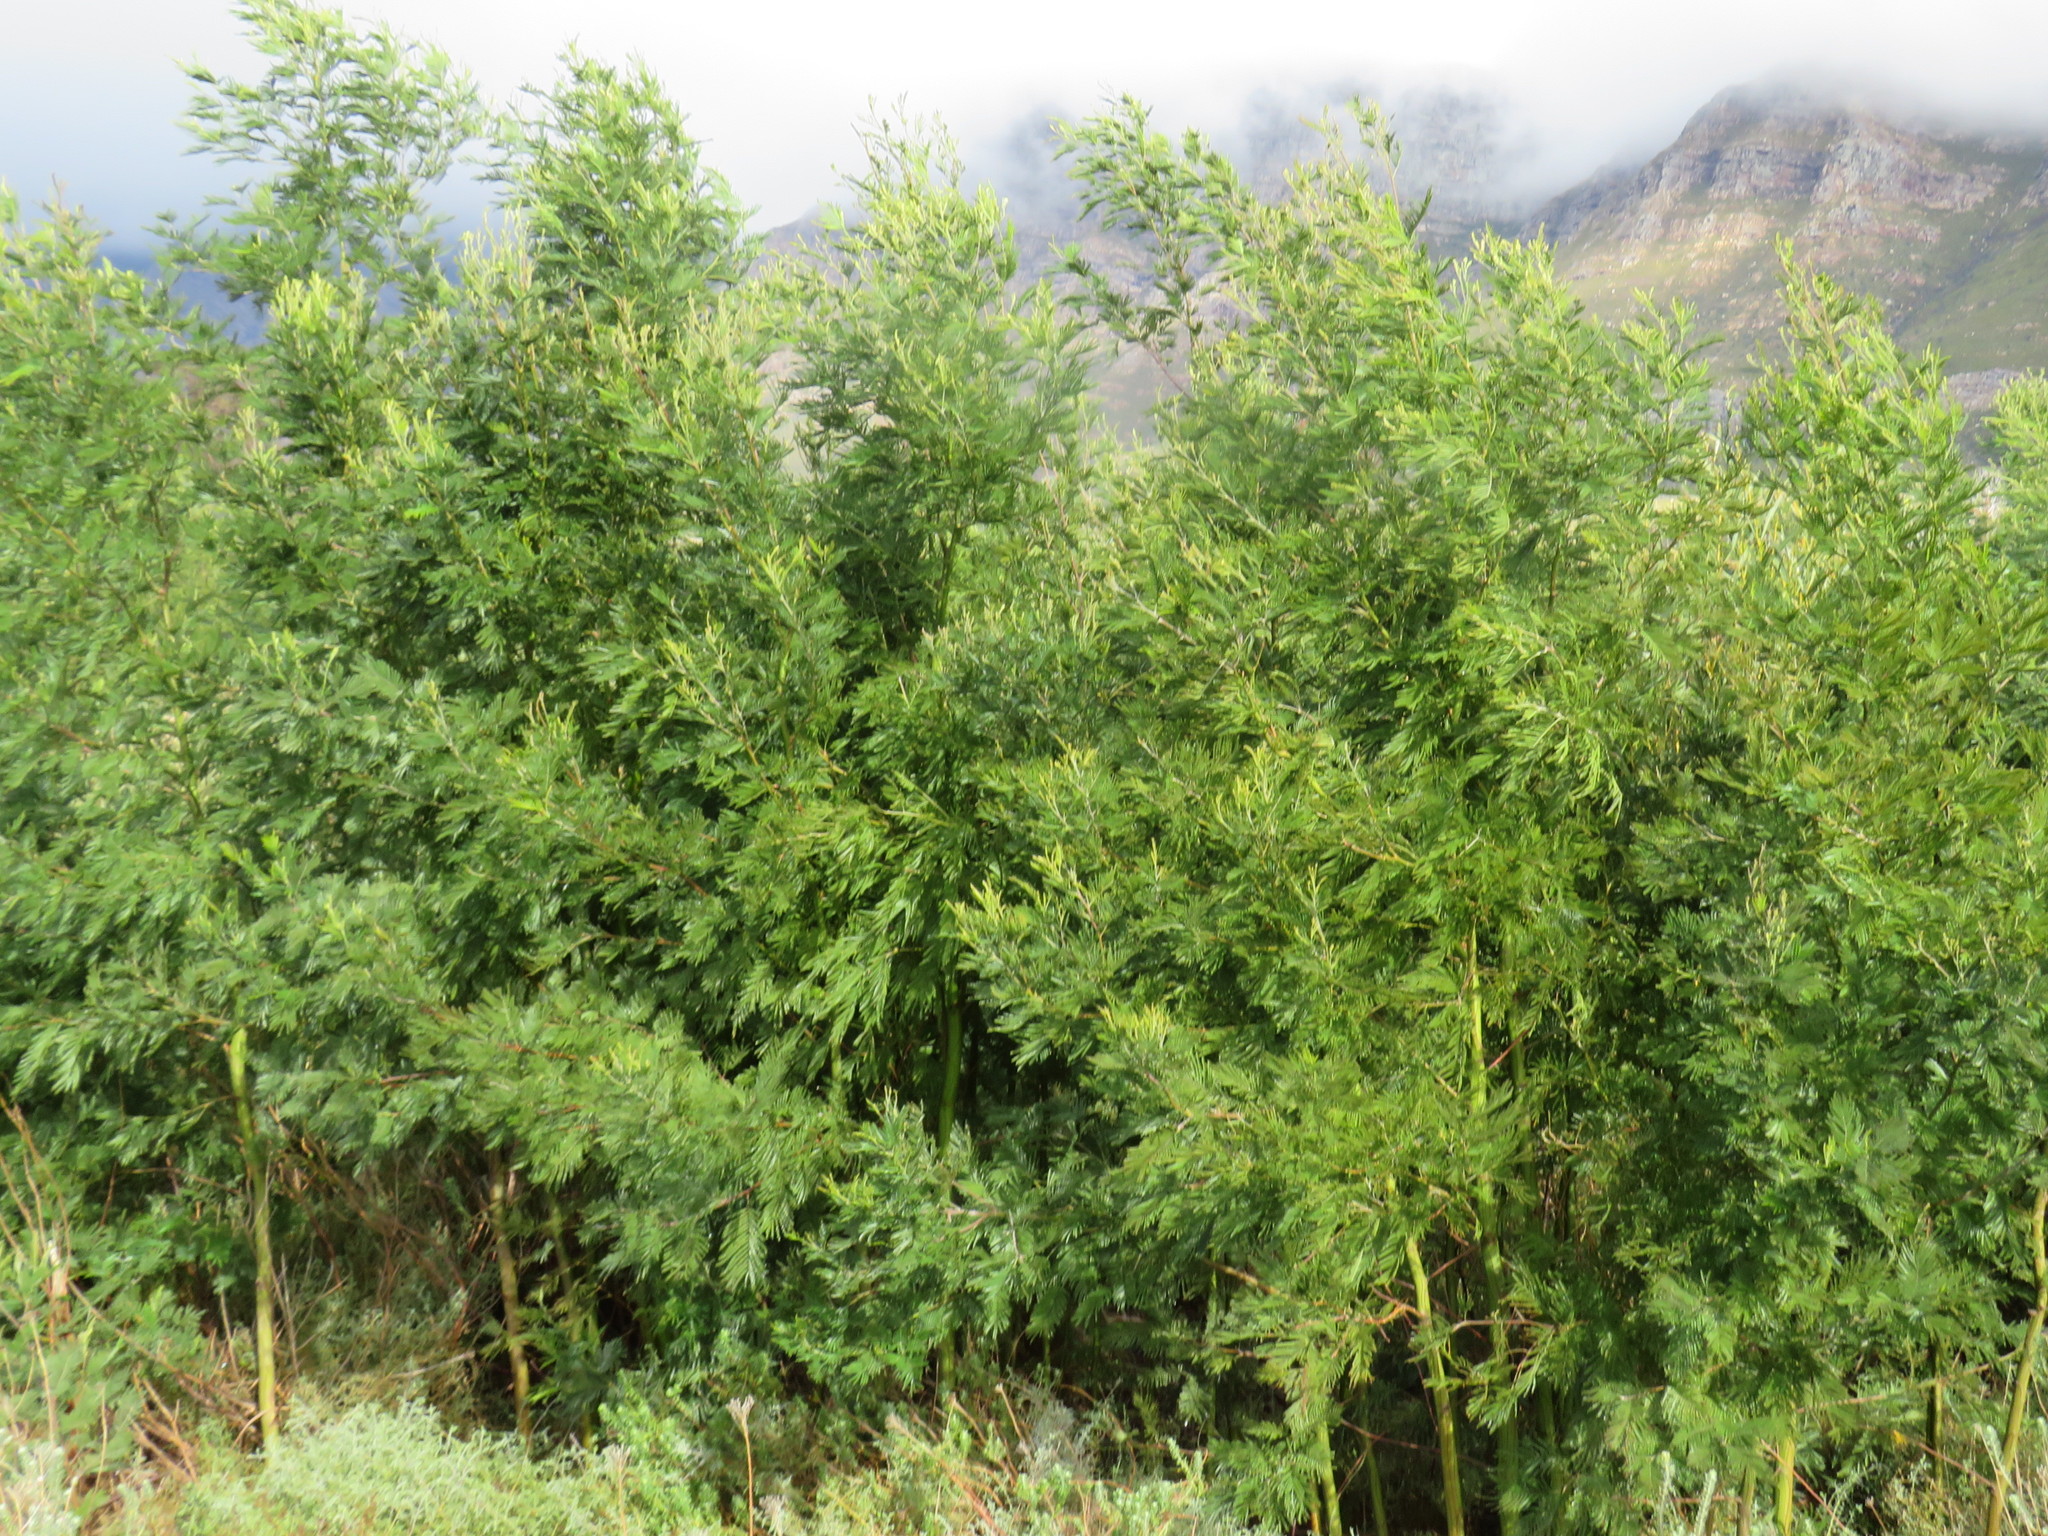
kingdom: Plantae
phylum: Tracheophyta
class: Magnoliopsida
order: Fabales
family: Fabaceae
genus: Acacia
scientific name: Acacia mearnsii
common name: Black wattle
